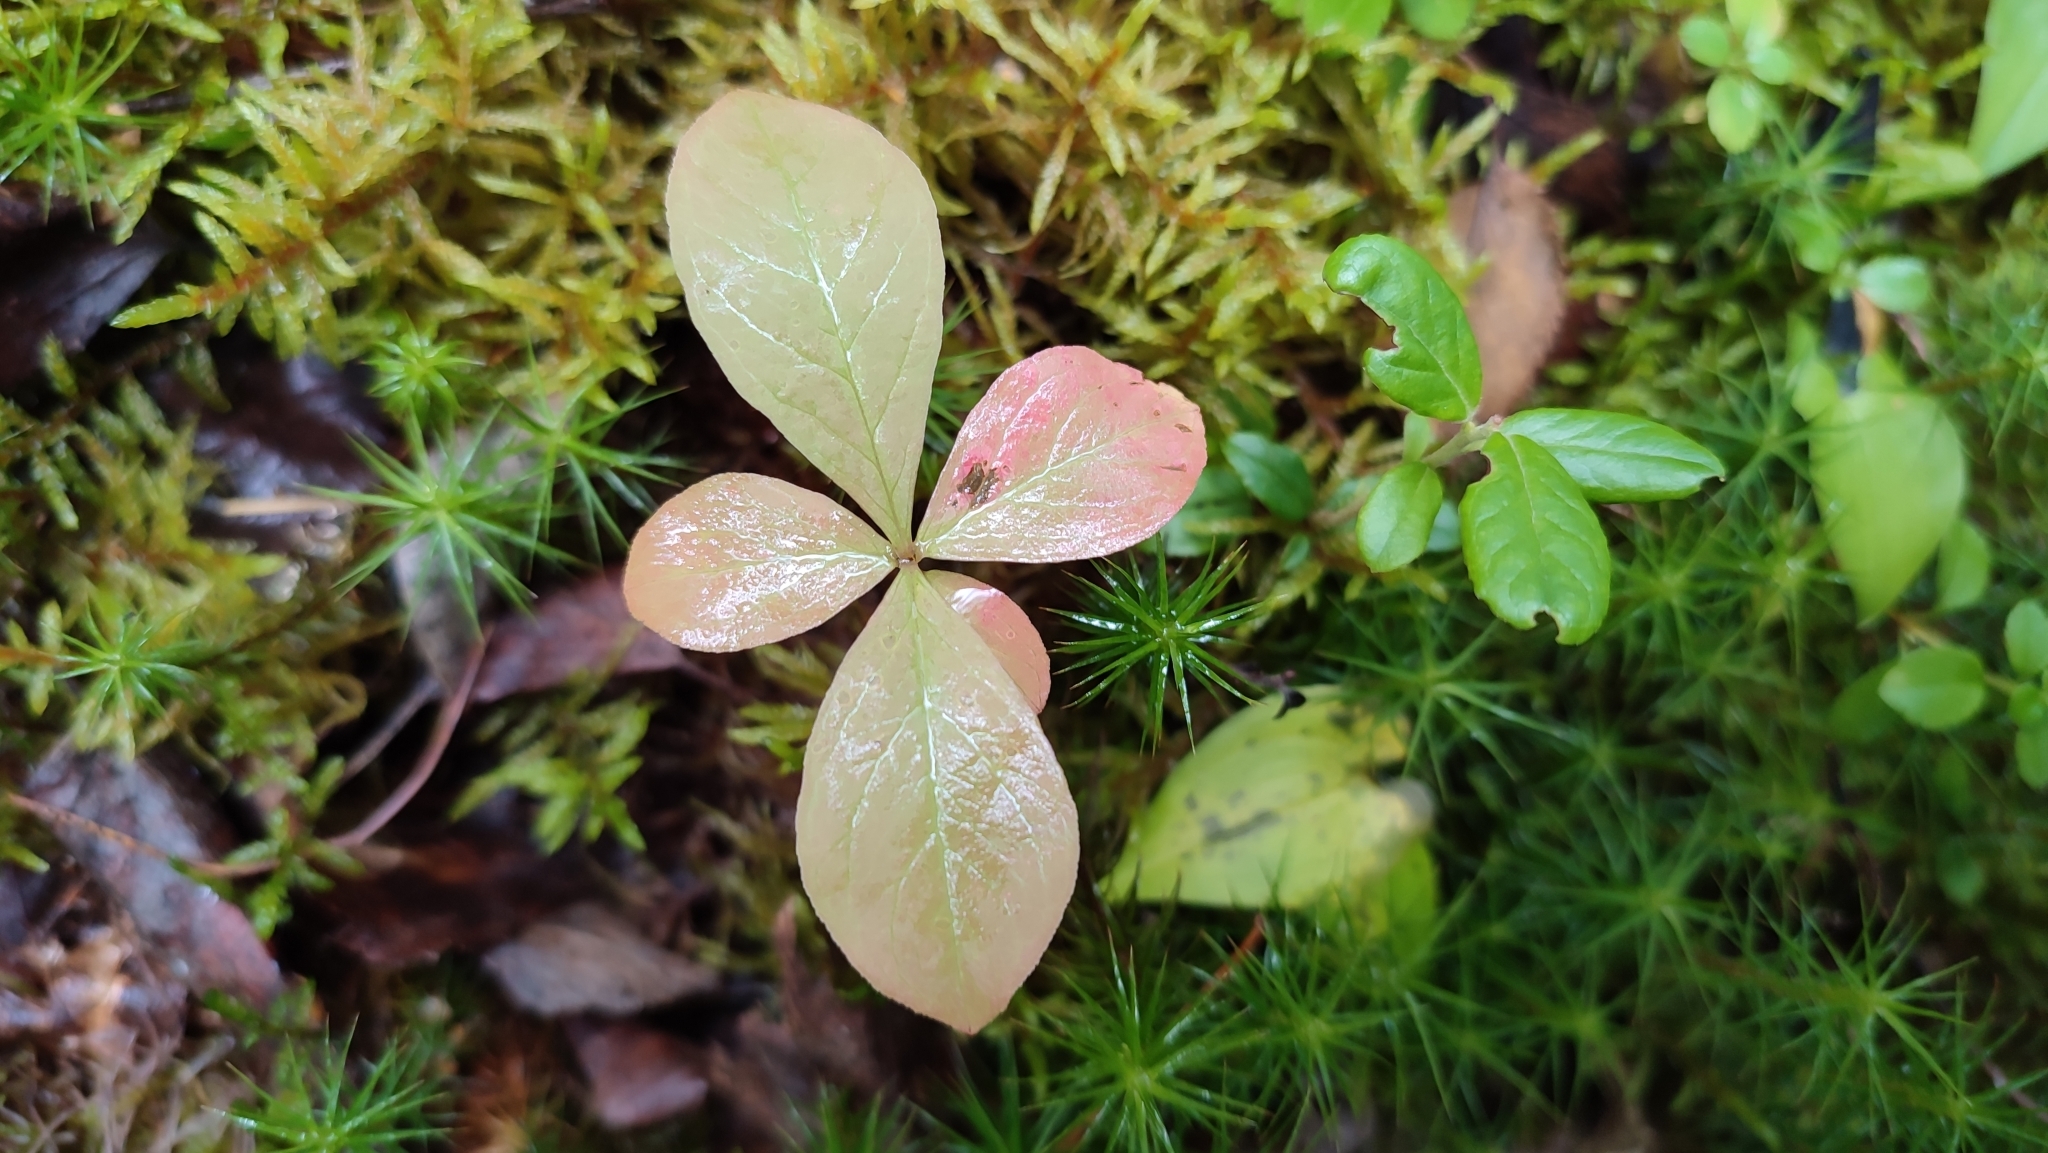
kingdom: Plantae
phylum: Tracheophyta
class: Magnoliopsida
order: Ericales
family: Primulaceae
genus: Lysimachia
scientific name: Lysimachia europaea
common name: Arctic starflower
